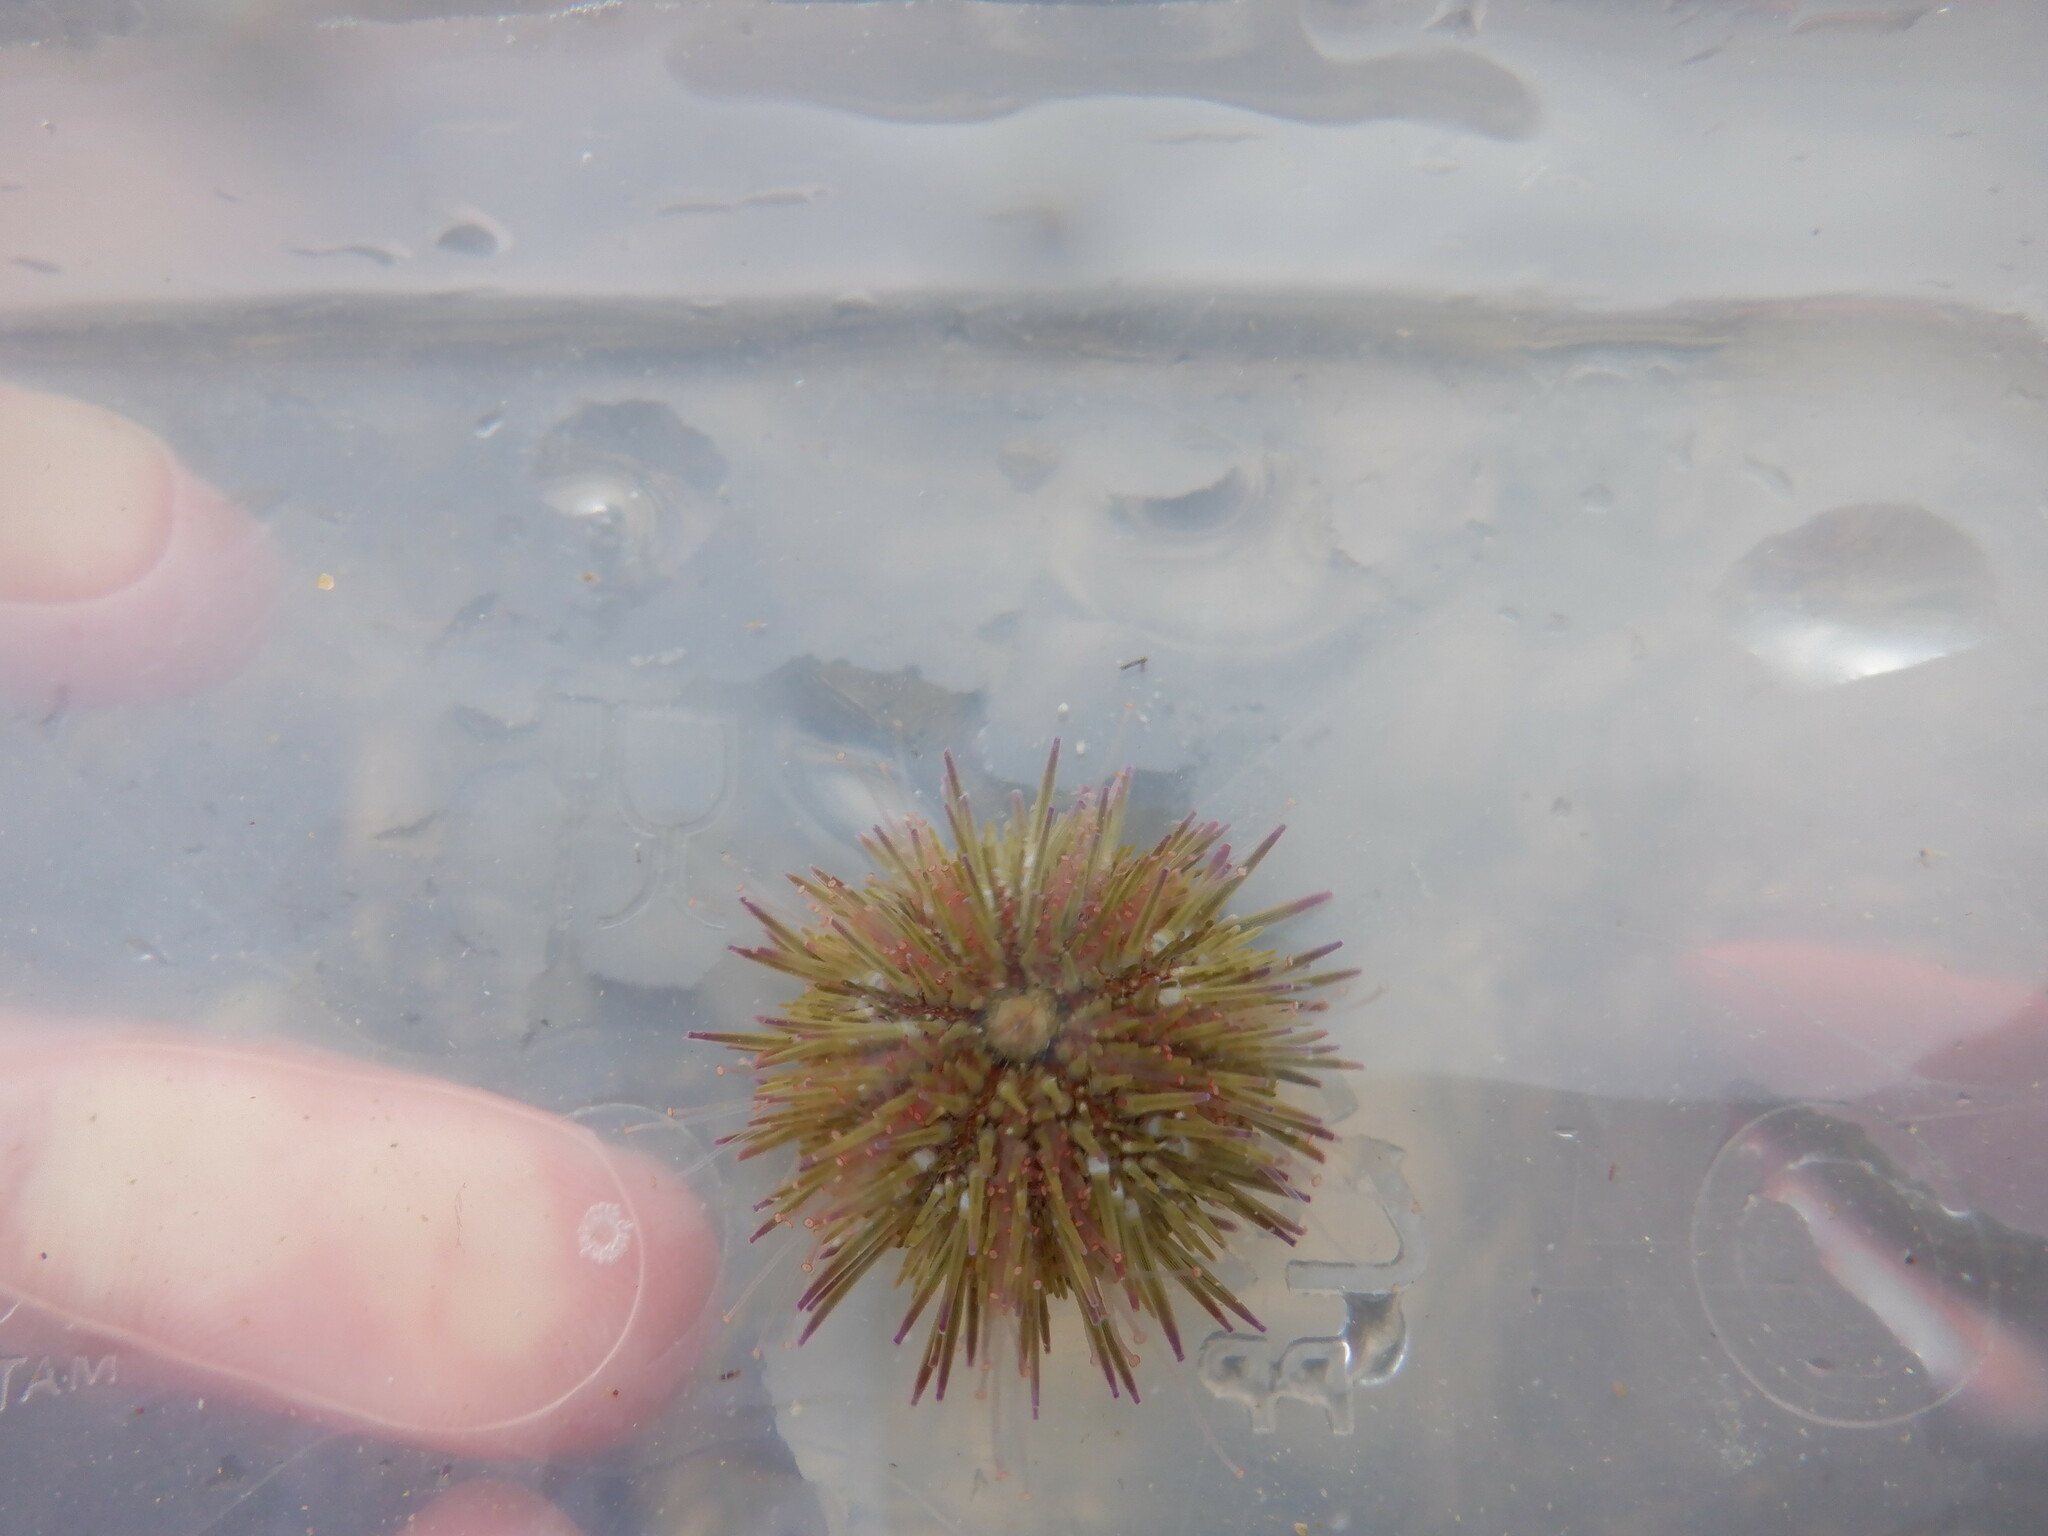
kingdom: Animalia
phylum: Echinodermata
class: Echinoidea
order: Camarodonta
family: Parechinidae
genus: Psammechinus
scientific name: Psammechinus miliaris
